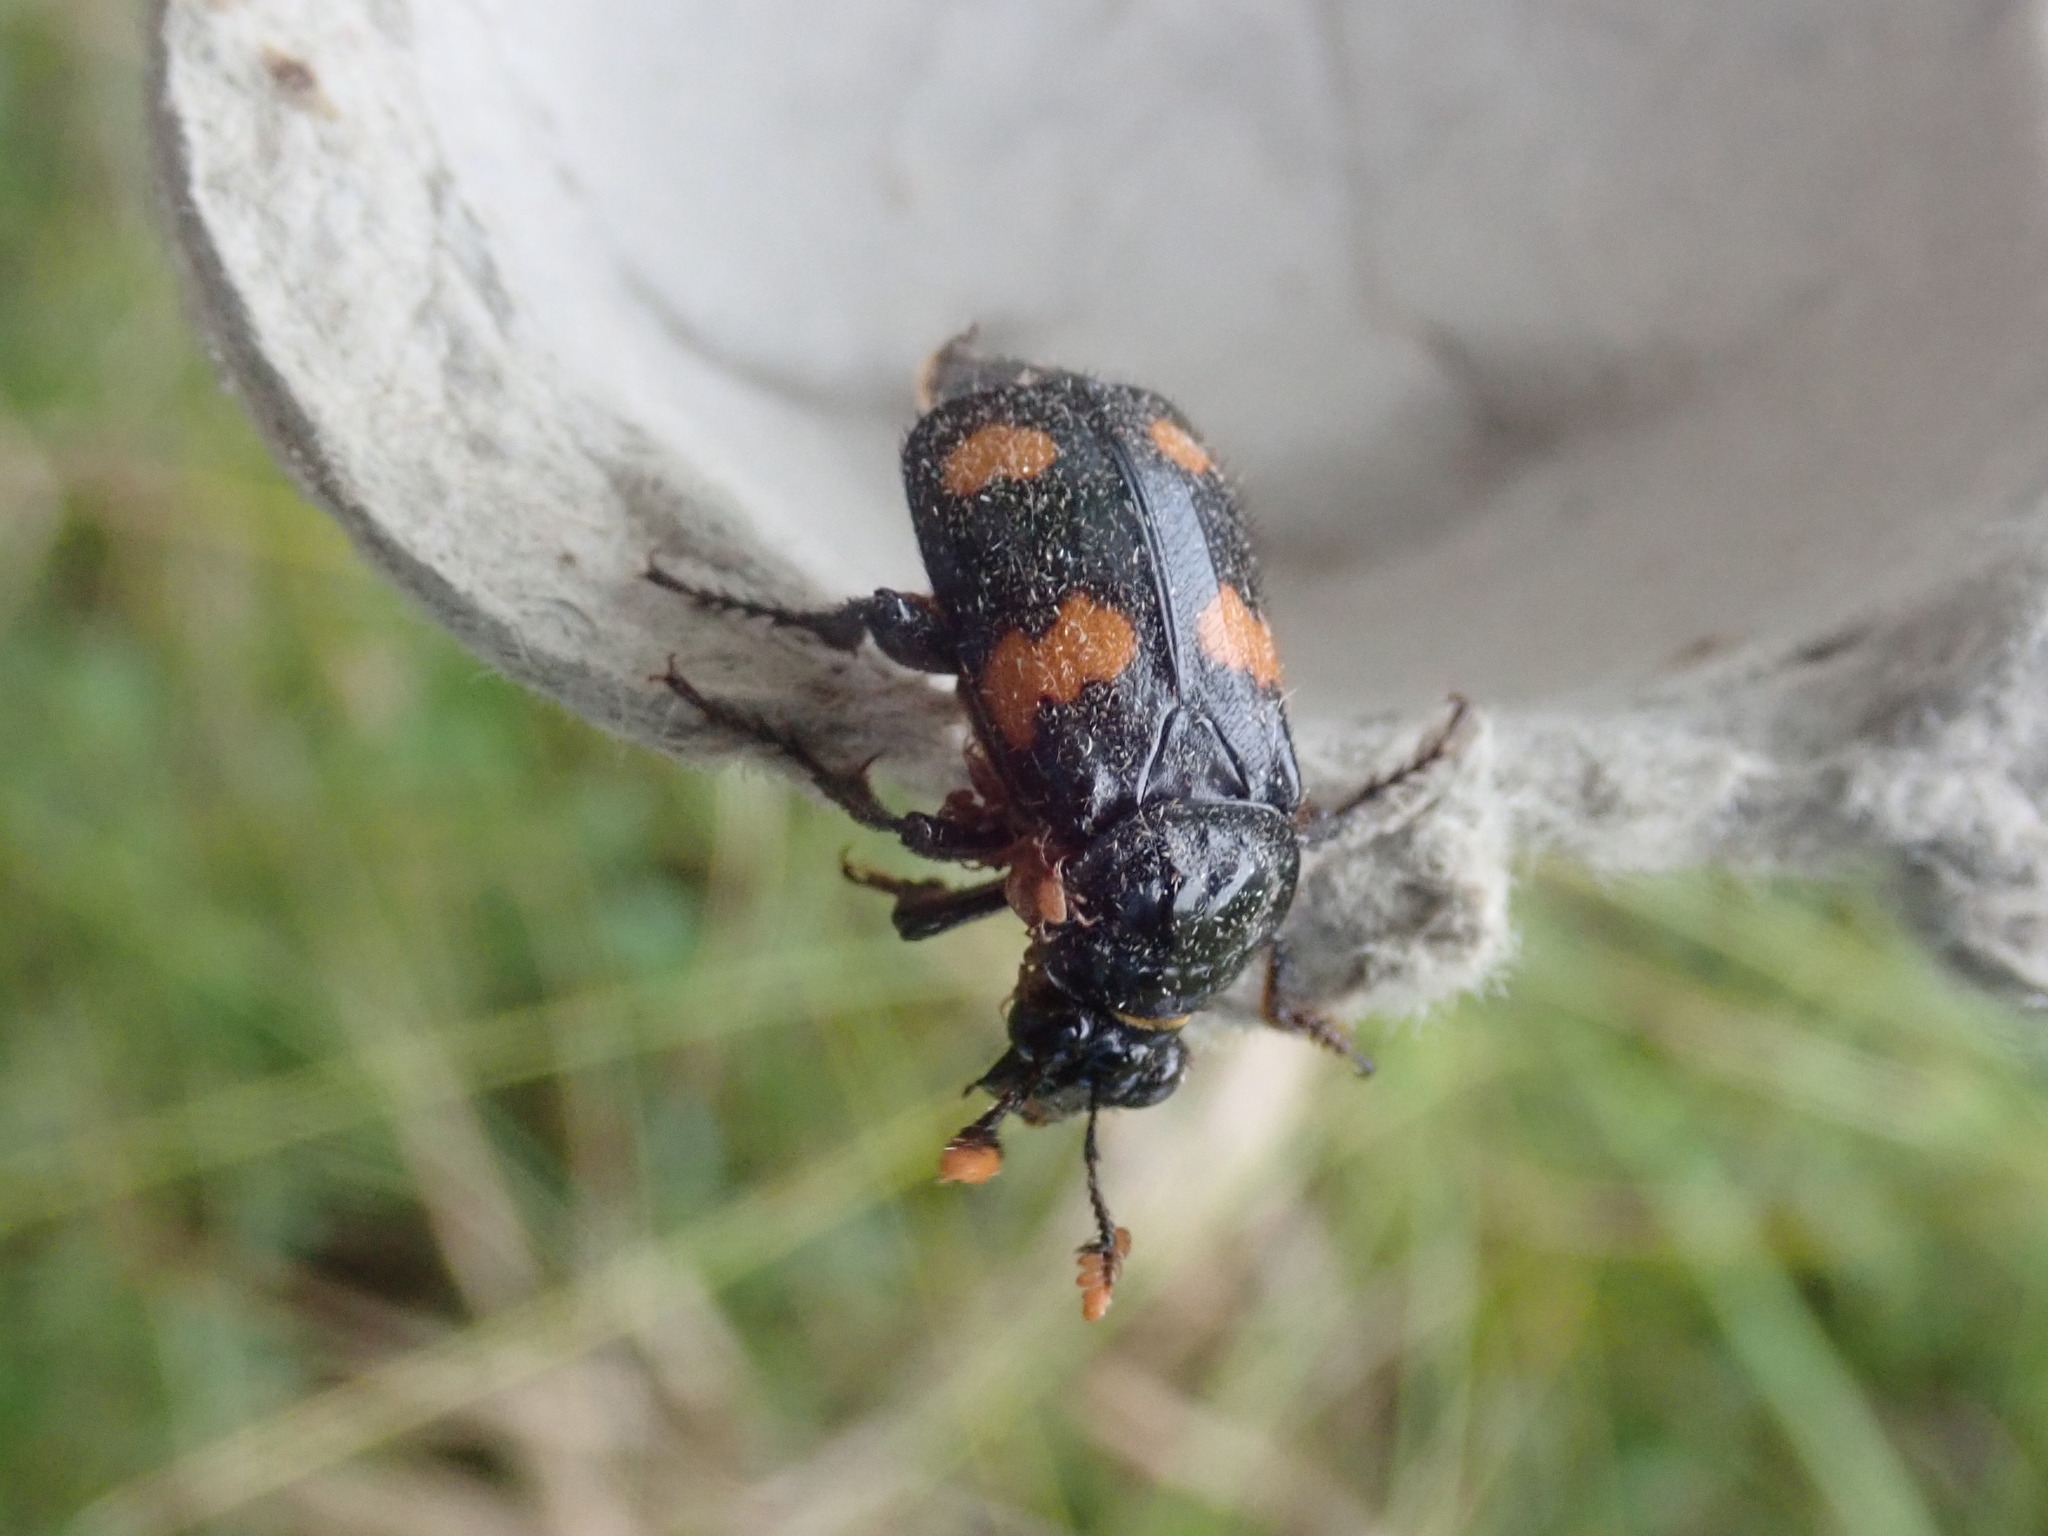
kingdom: Animalia
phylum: Arthropoda
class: Insecta
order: Coleoptera
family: Staphylinidae
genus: Nicrophorus
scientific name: Nicrophorus orbicollis
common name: Roundneck sexton beetle
